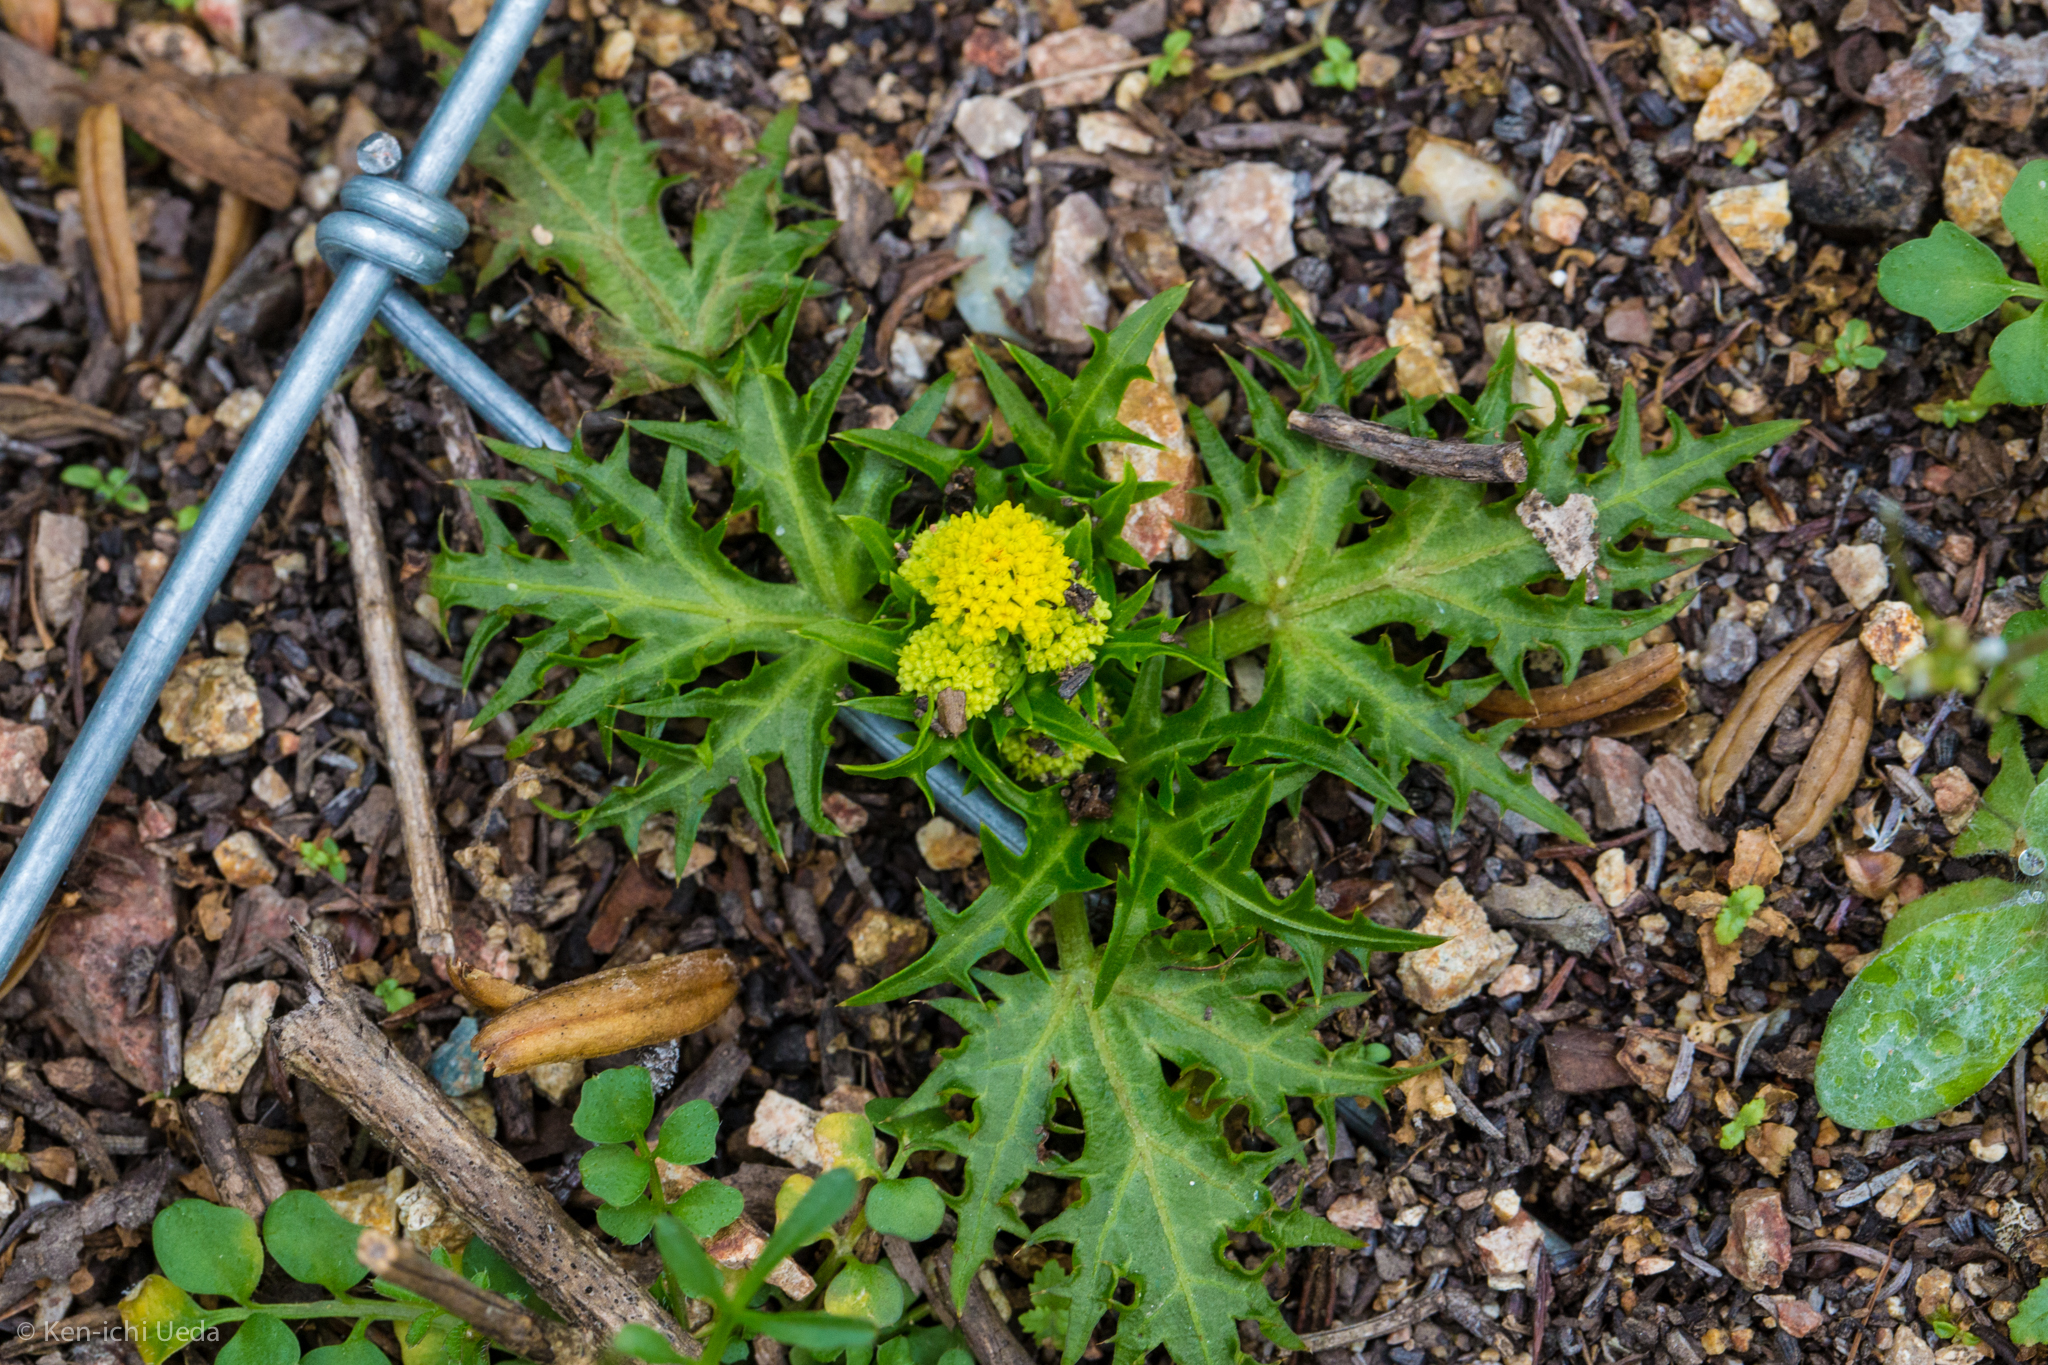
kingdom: Plantae
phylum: Tracheophyta
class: Magnoliopsida
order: Apiales
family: Apiaceae
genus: Sanicula
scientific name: Sanicula laciniata
